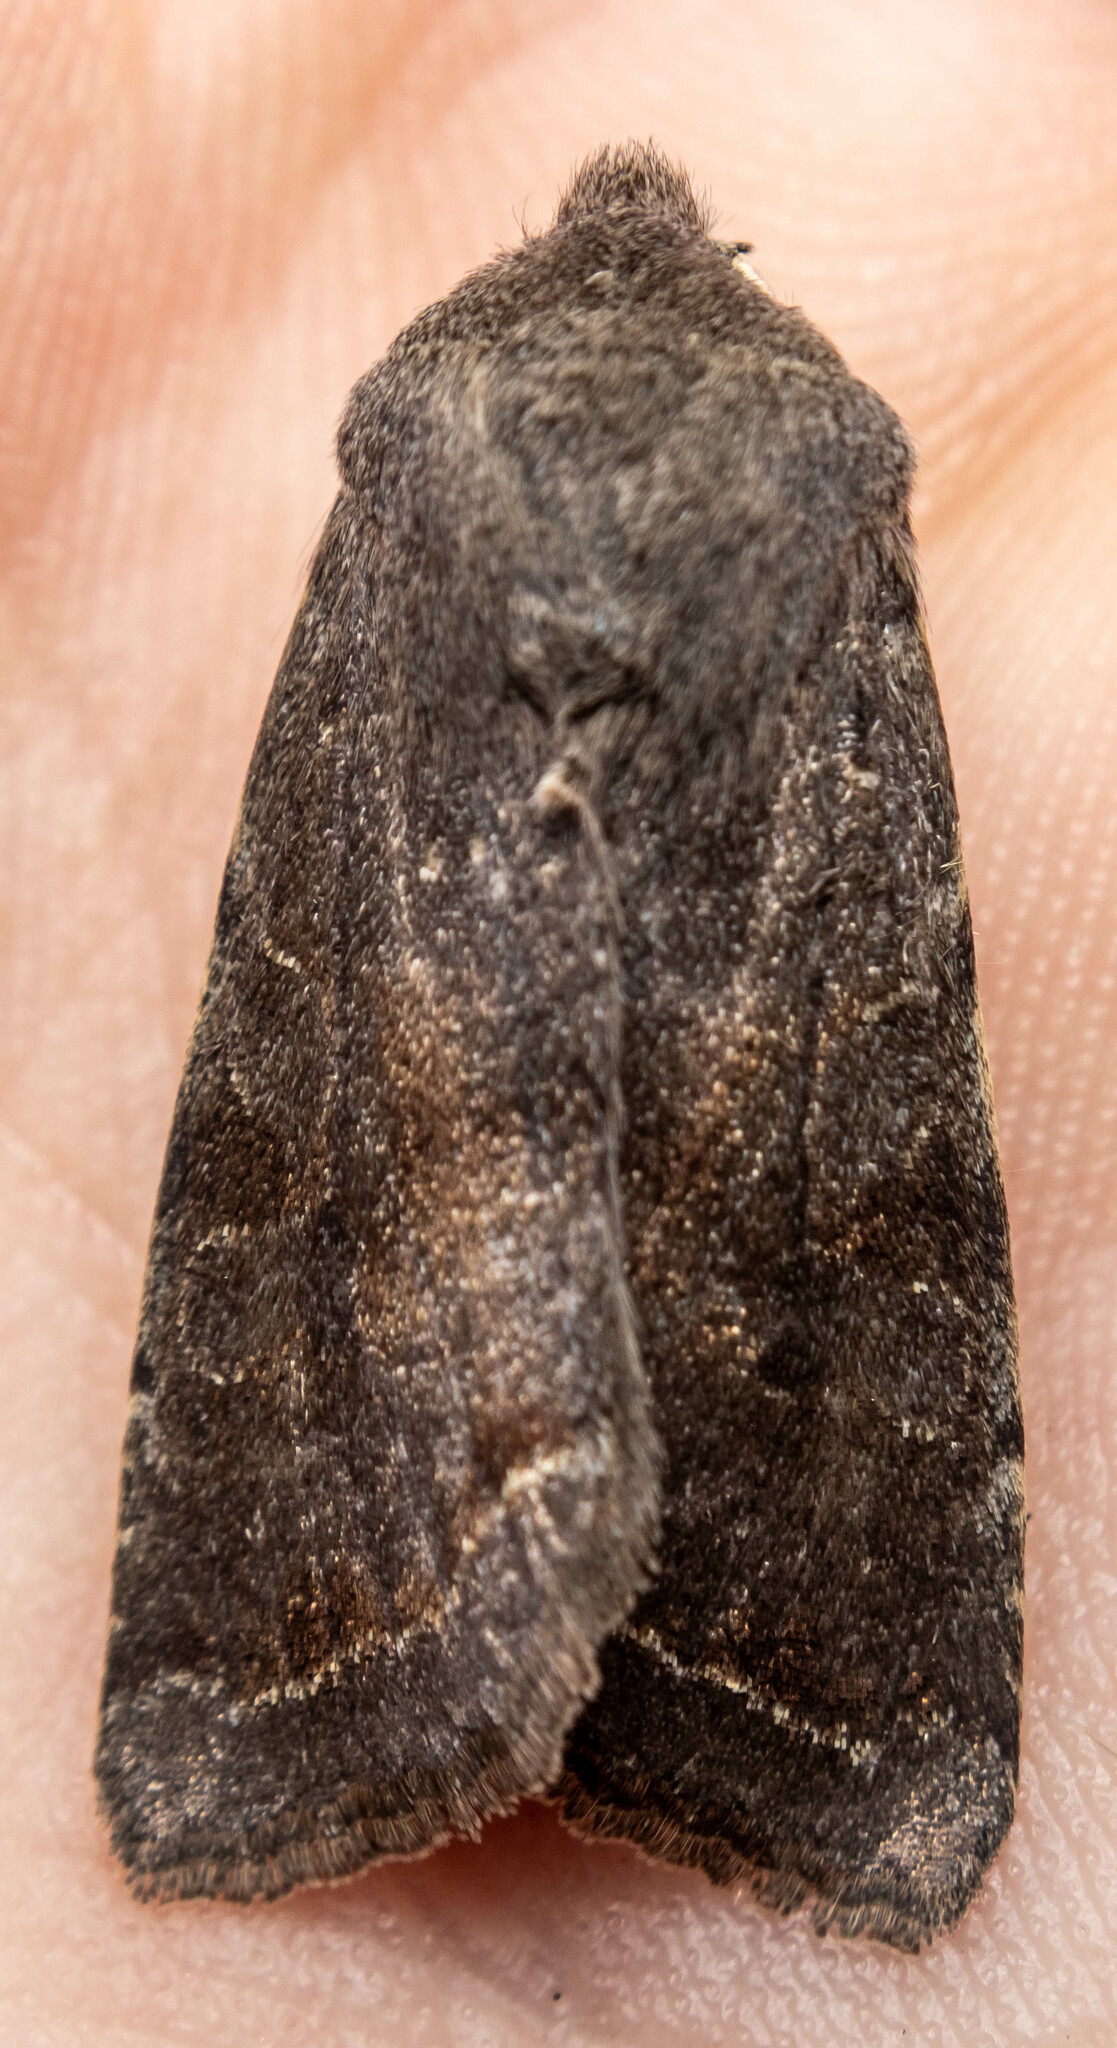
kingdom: Animalia
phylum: Arthropoda
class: Insecta
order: Lepidoptera
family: Noctuidae
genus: Orthosia
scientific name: Orthosia incerta
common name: Clouded drab
